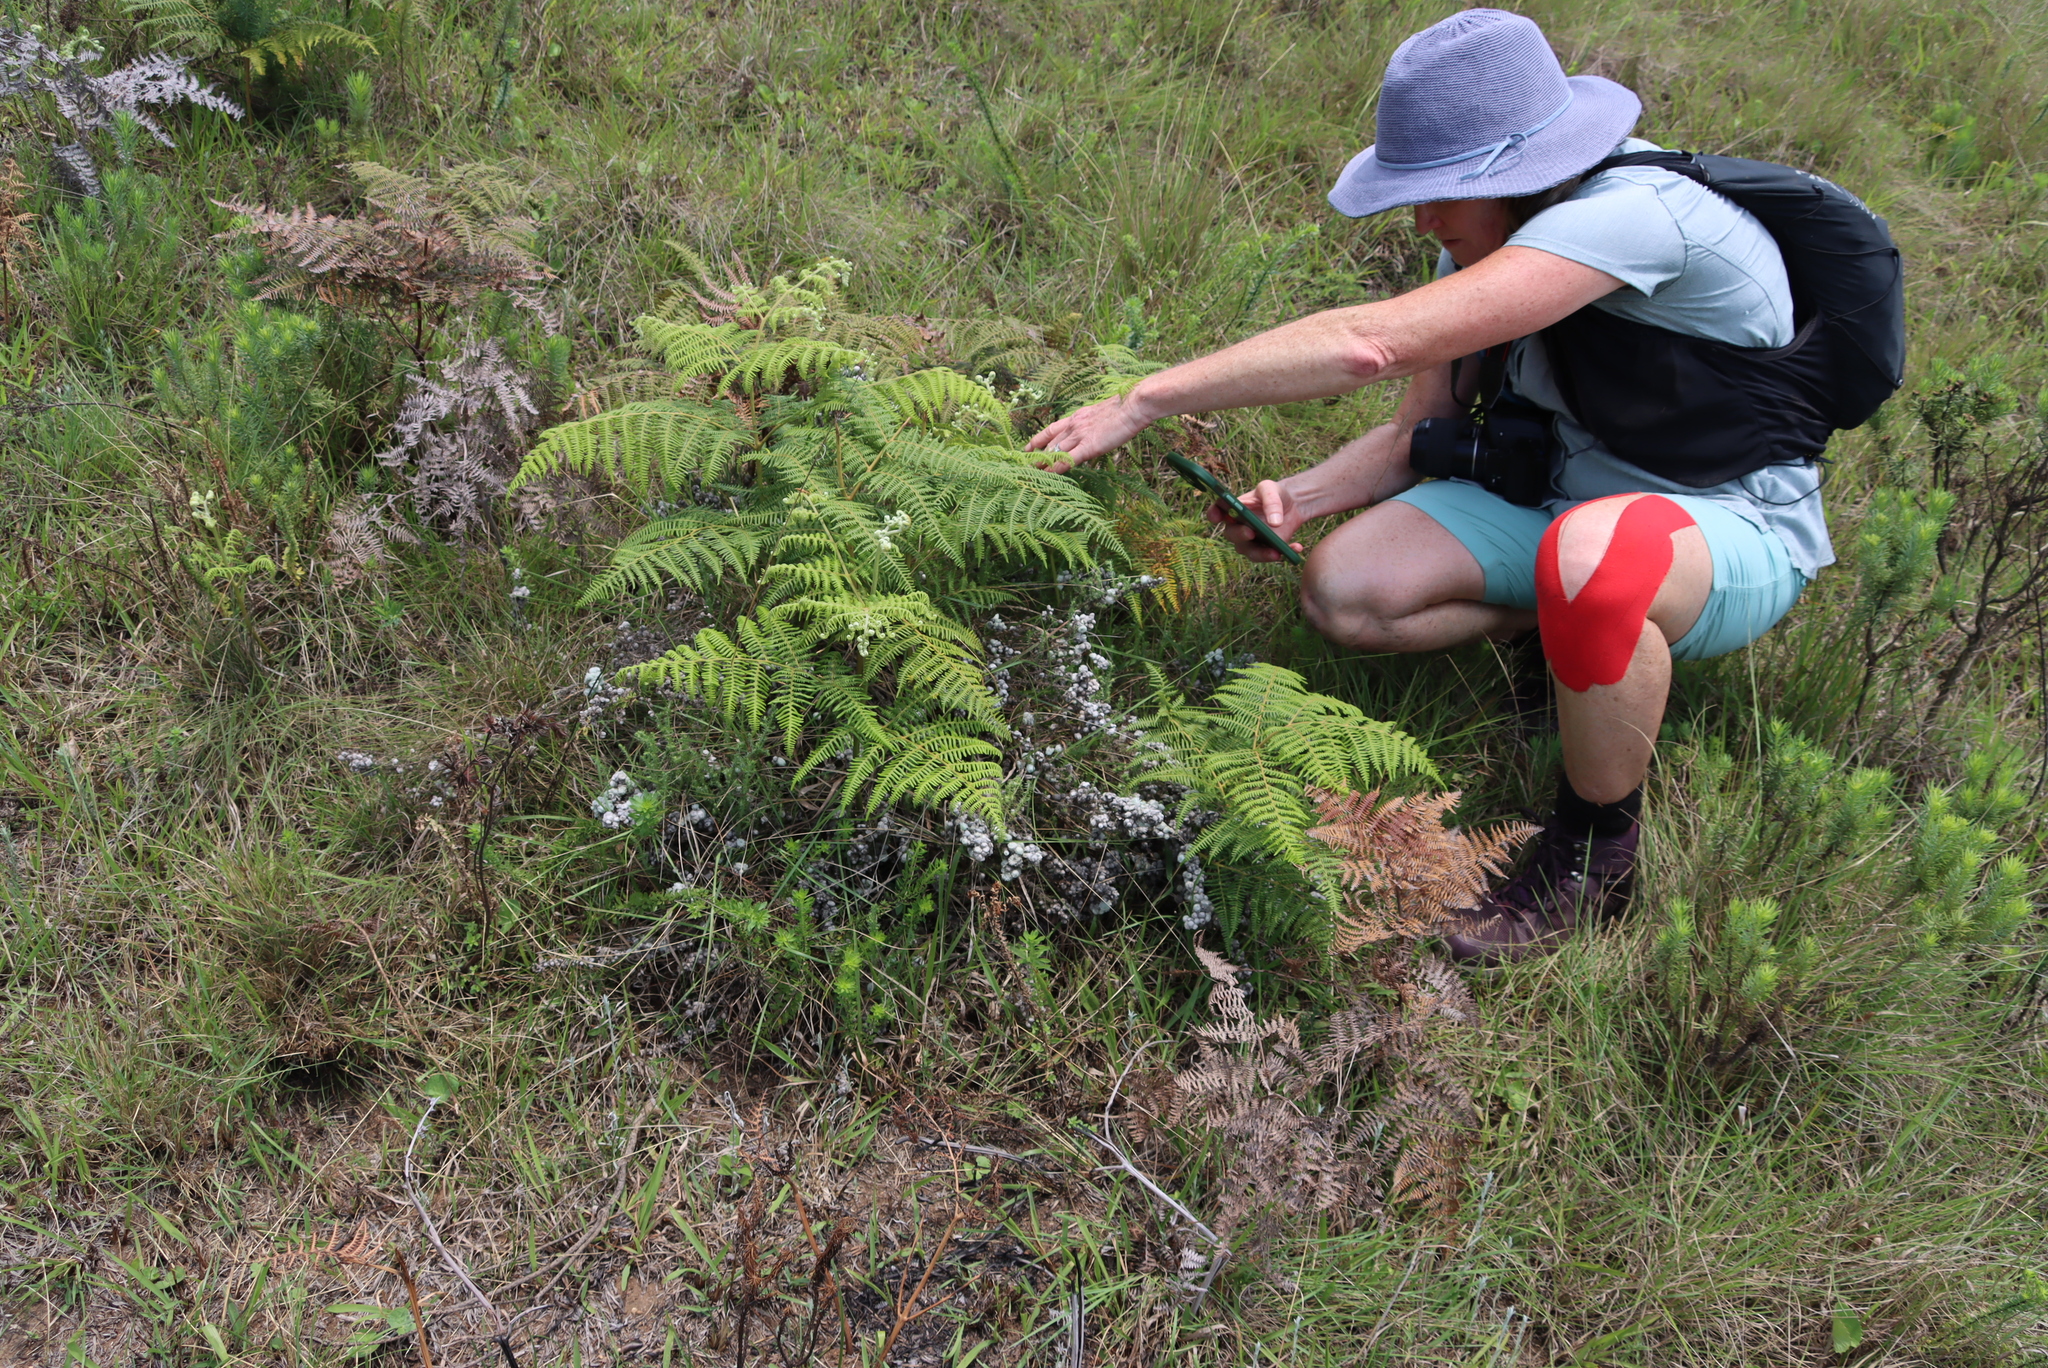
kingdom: Plantae
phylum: Tracheophyta
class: Polypodiopsida
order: Polypodiales
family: Dennstaedtiaceae
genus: Pteridium
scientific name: Pteridium aquilinum
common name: Bracken
